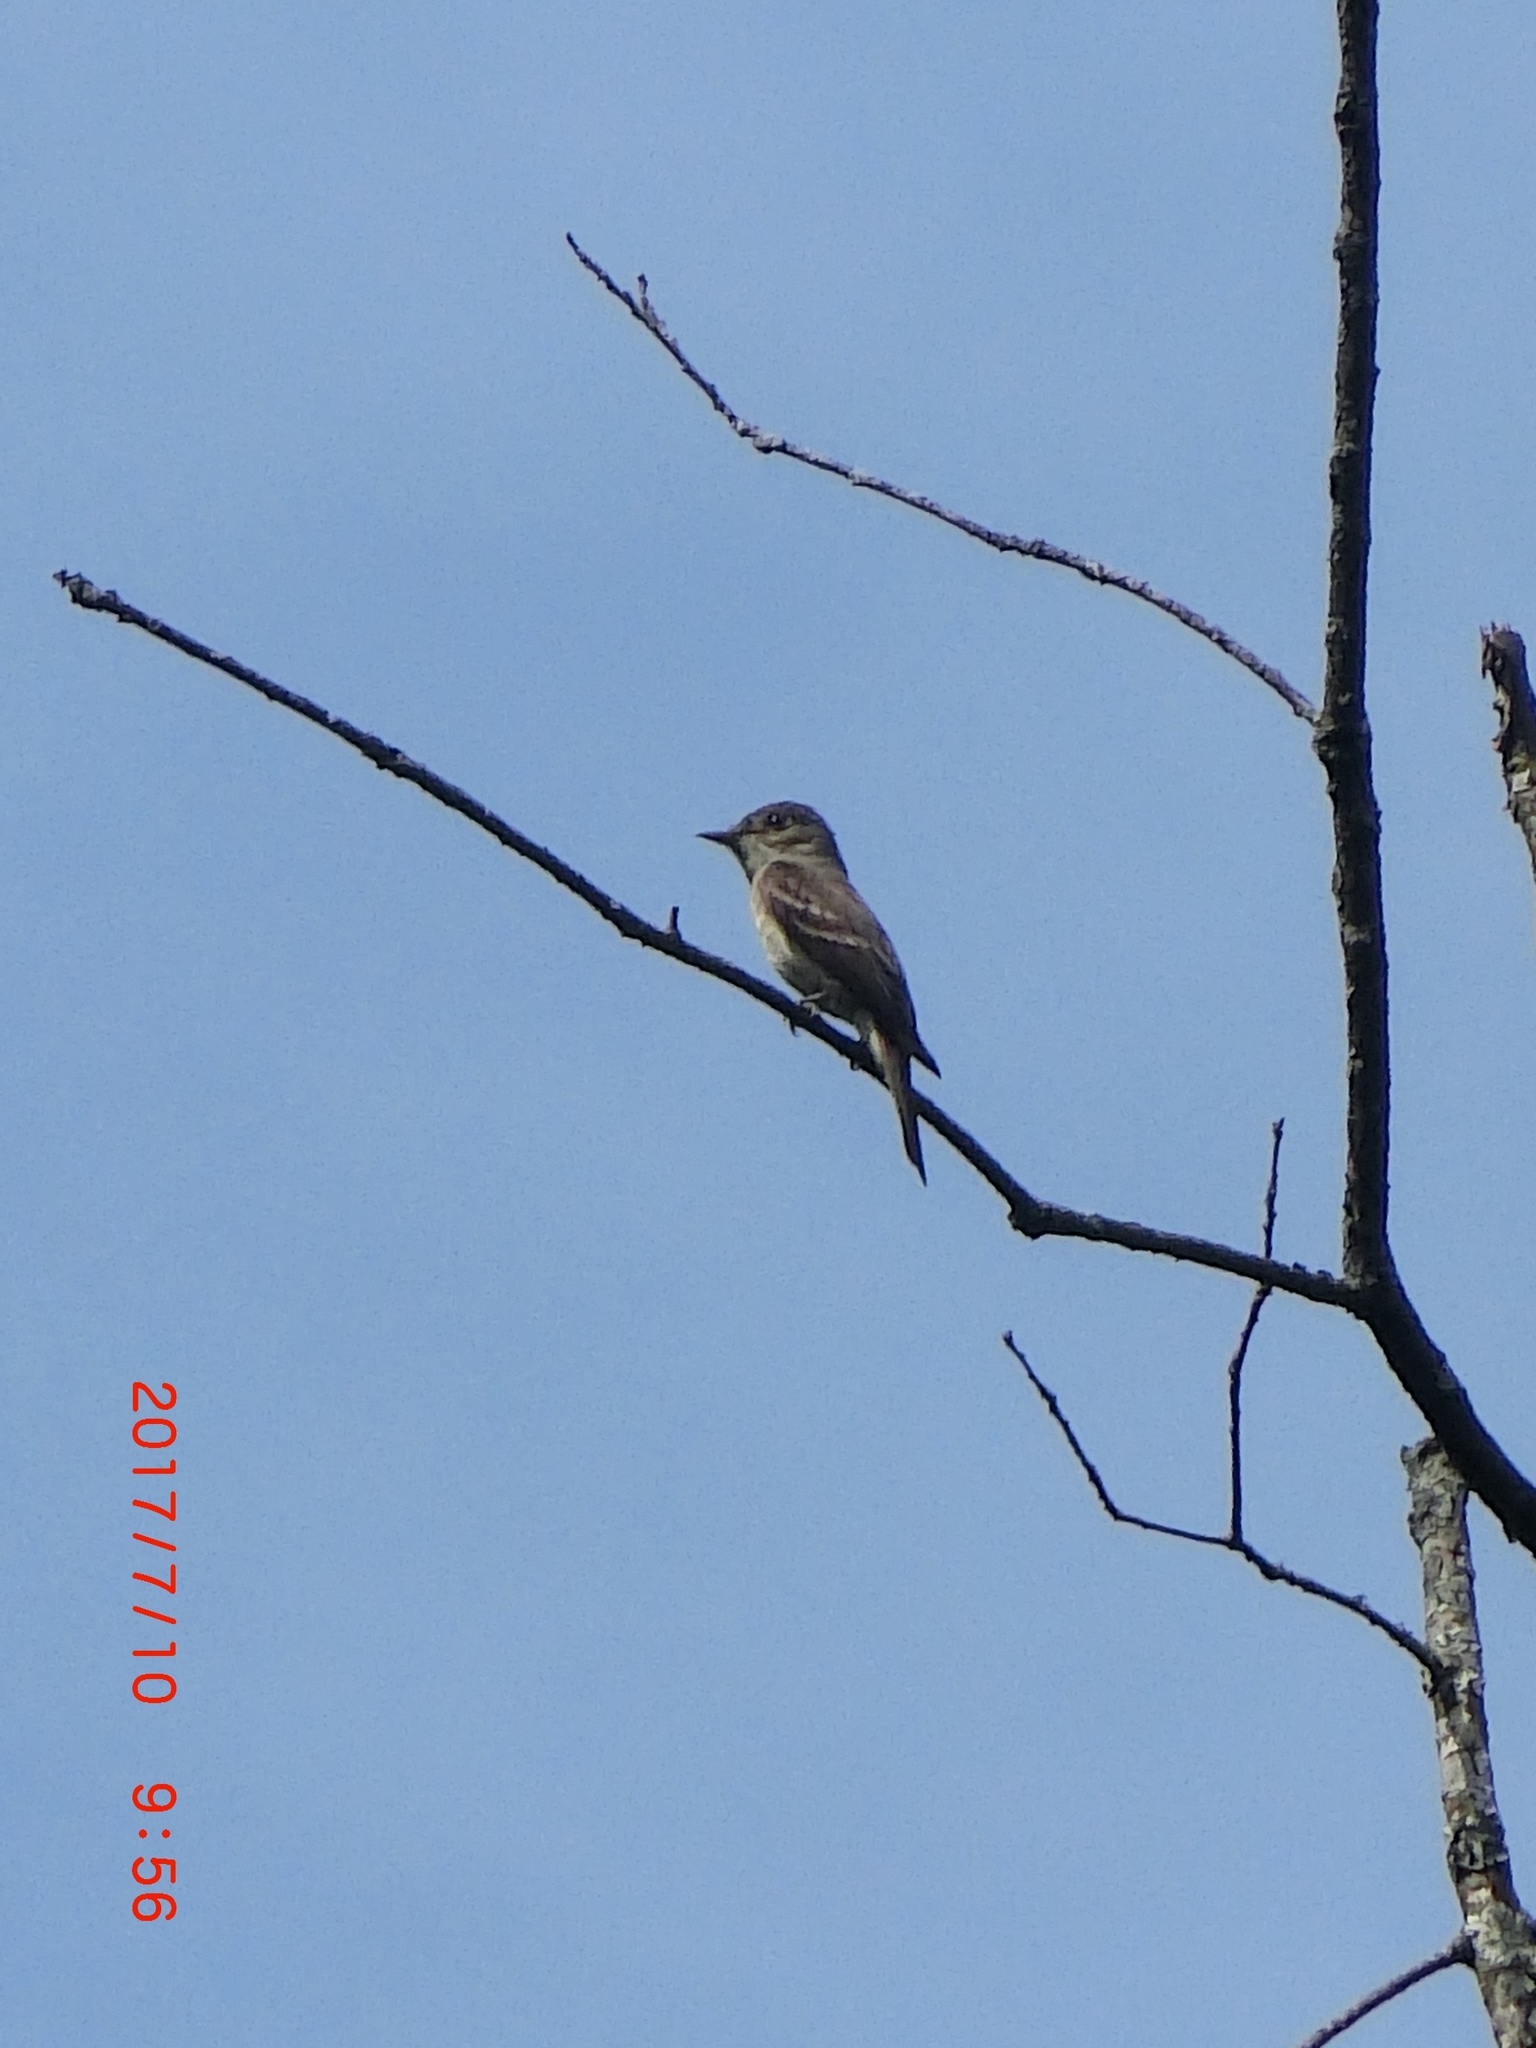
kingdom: Animalia
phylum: Chordata
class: Aves
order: Passeriformes
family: Tyrannidae
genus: Contopus
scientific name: Contopus virens
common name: Eastern wood-pewee
